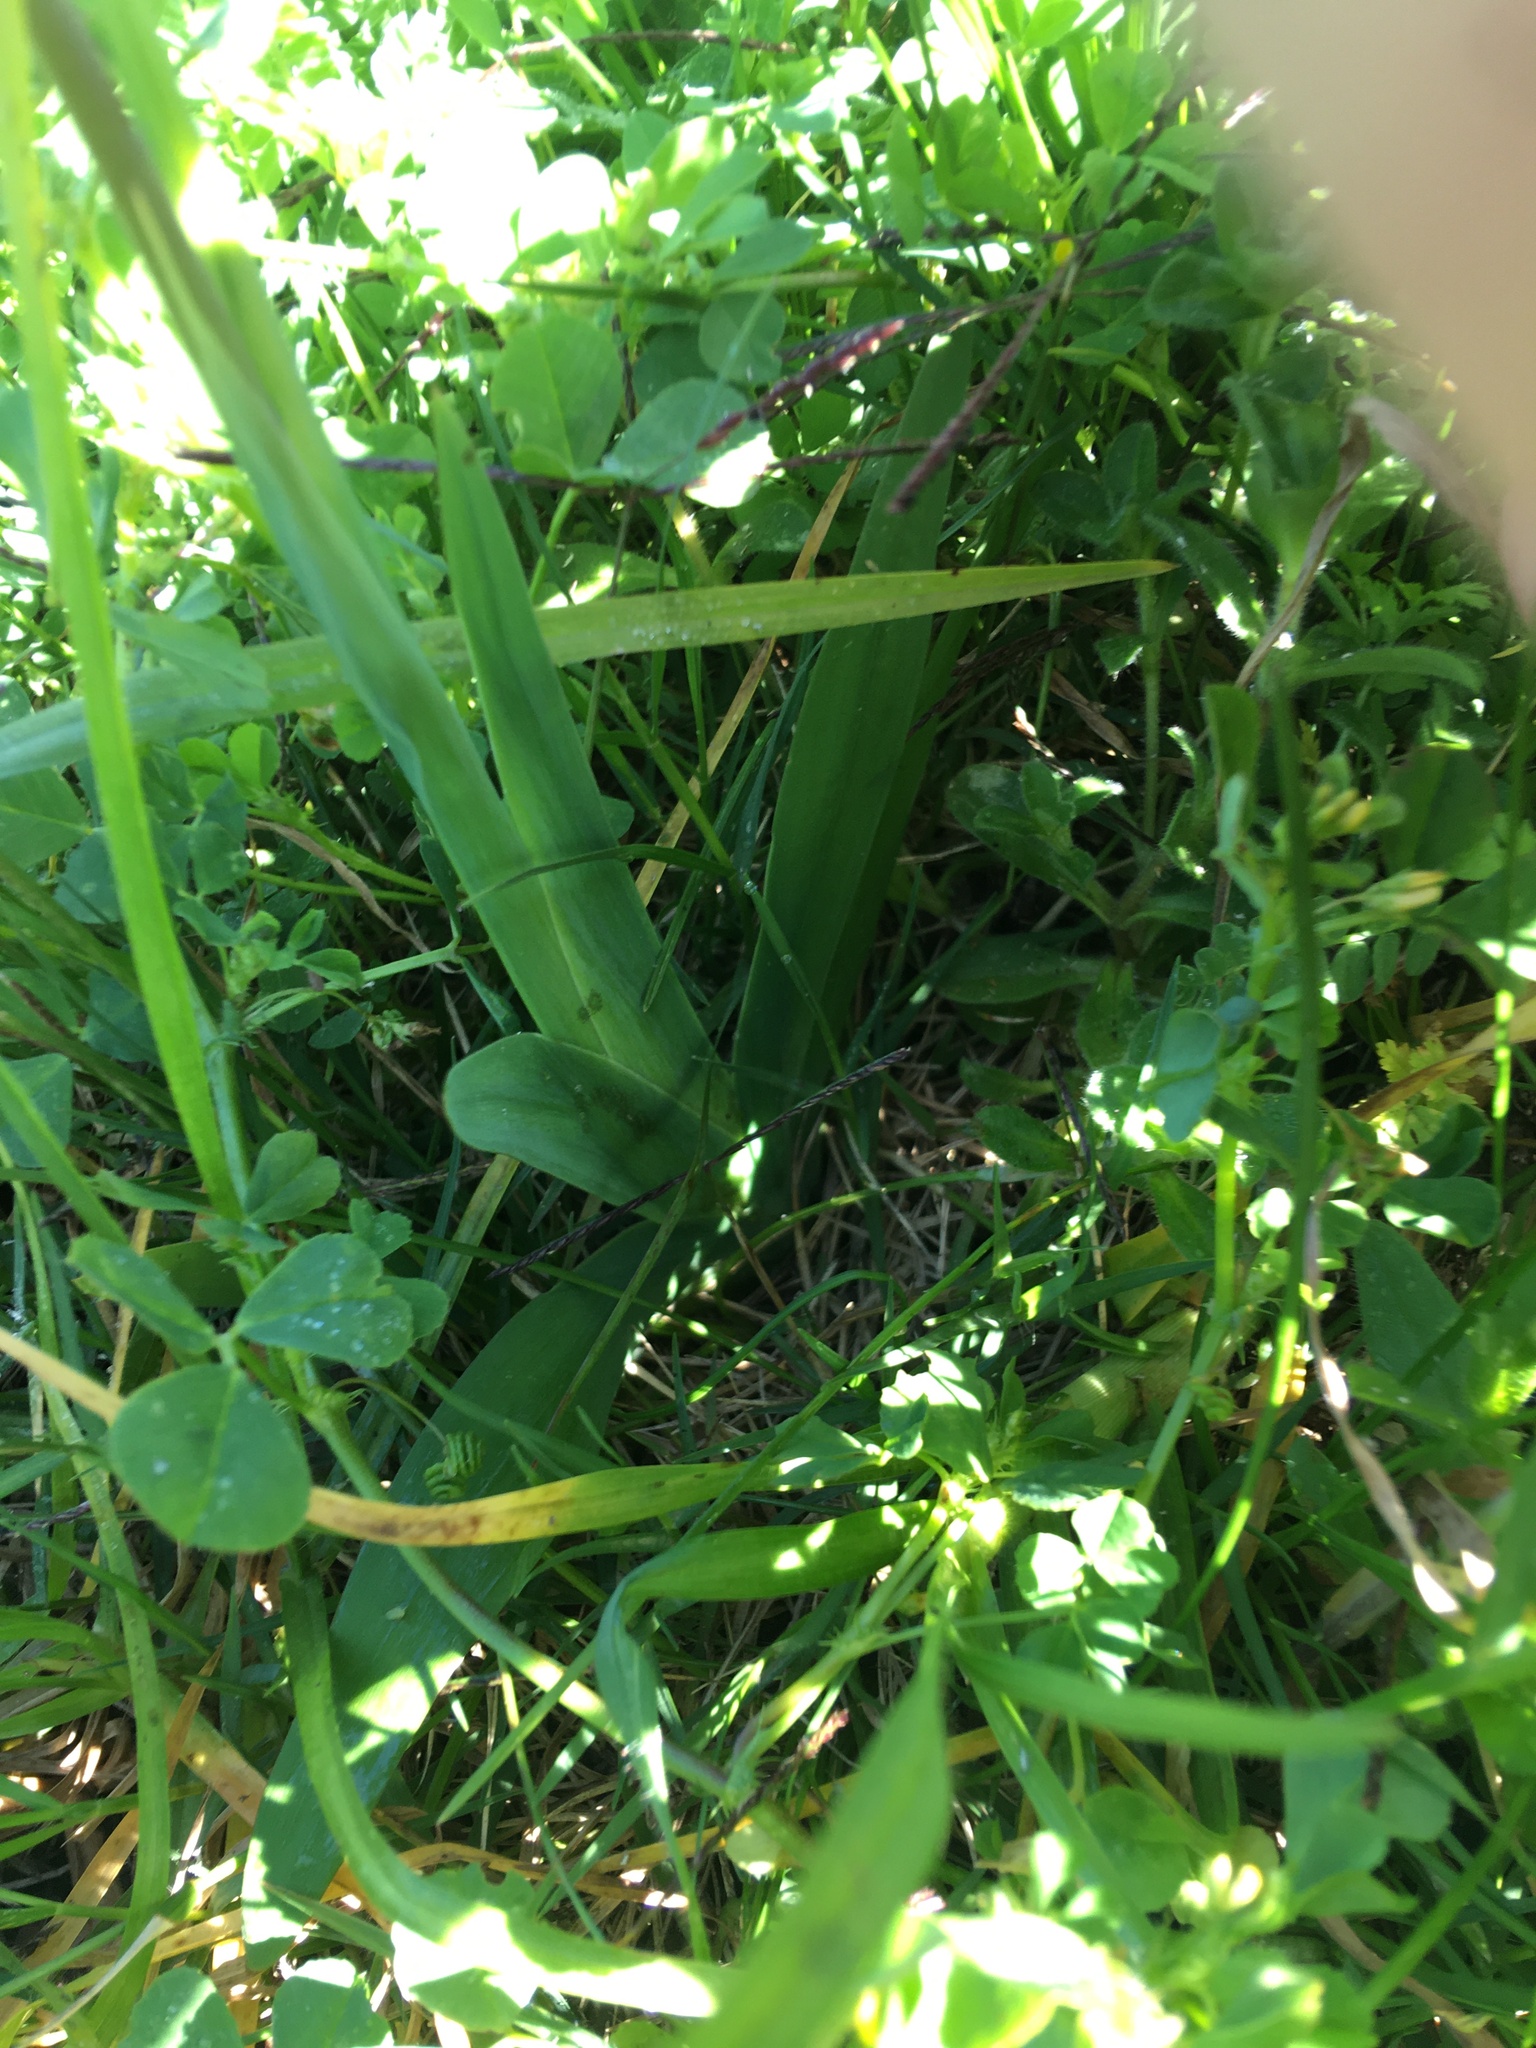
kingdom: Plantae
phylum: Tracheophyta
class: Liliopsida
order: Asparagales
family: Iridaceae
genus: Sparaxis
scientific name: Sparaxis bulbifera
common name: Harlequin-flower
